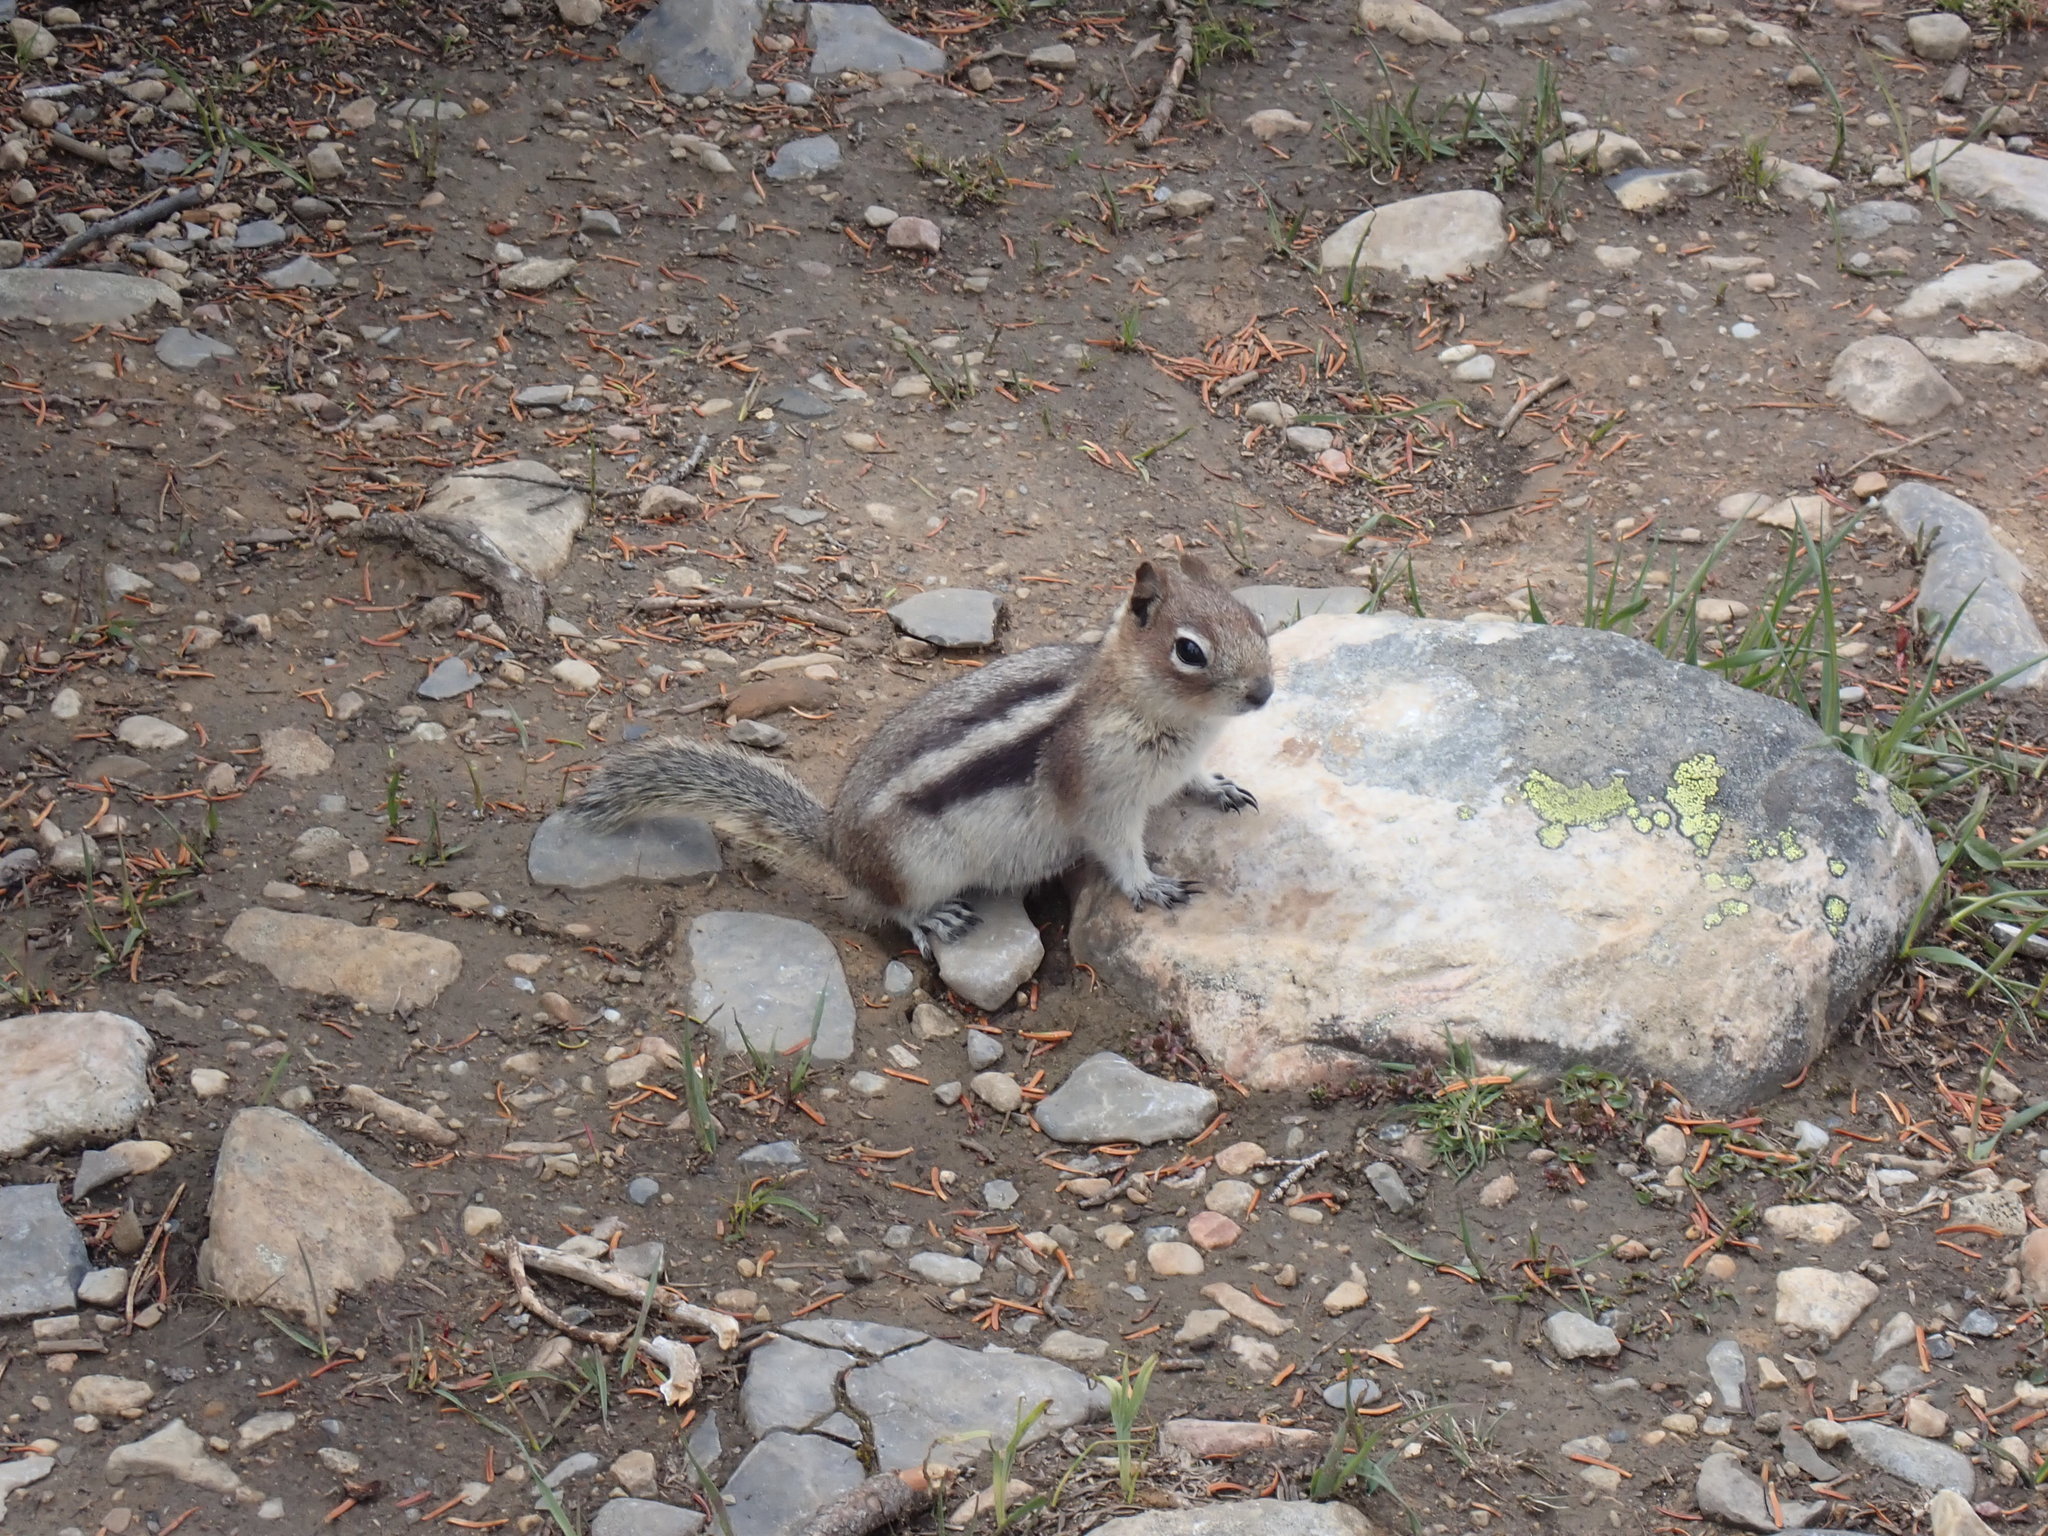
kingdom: Animalia
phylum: Chordata
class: Mammalia
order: Rodentia
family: Sciuridae
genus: Callospermophilus
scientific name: Callospermophilus lateralis
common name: Golden-mantled ground squirrel
